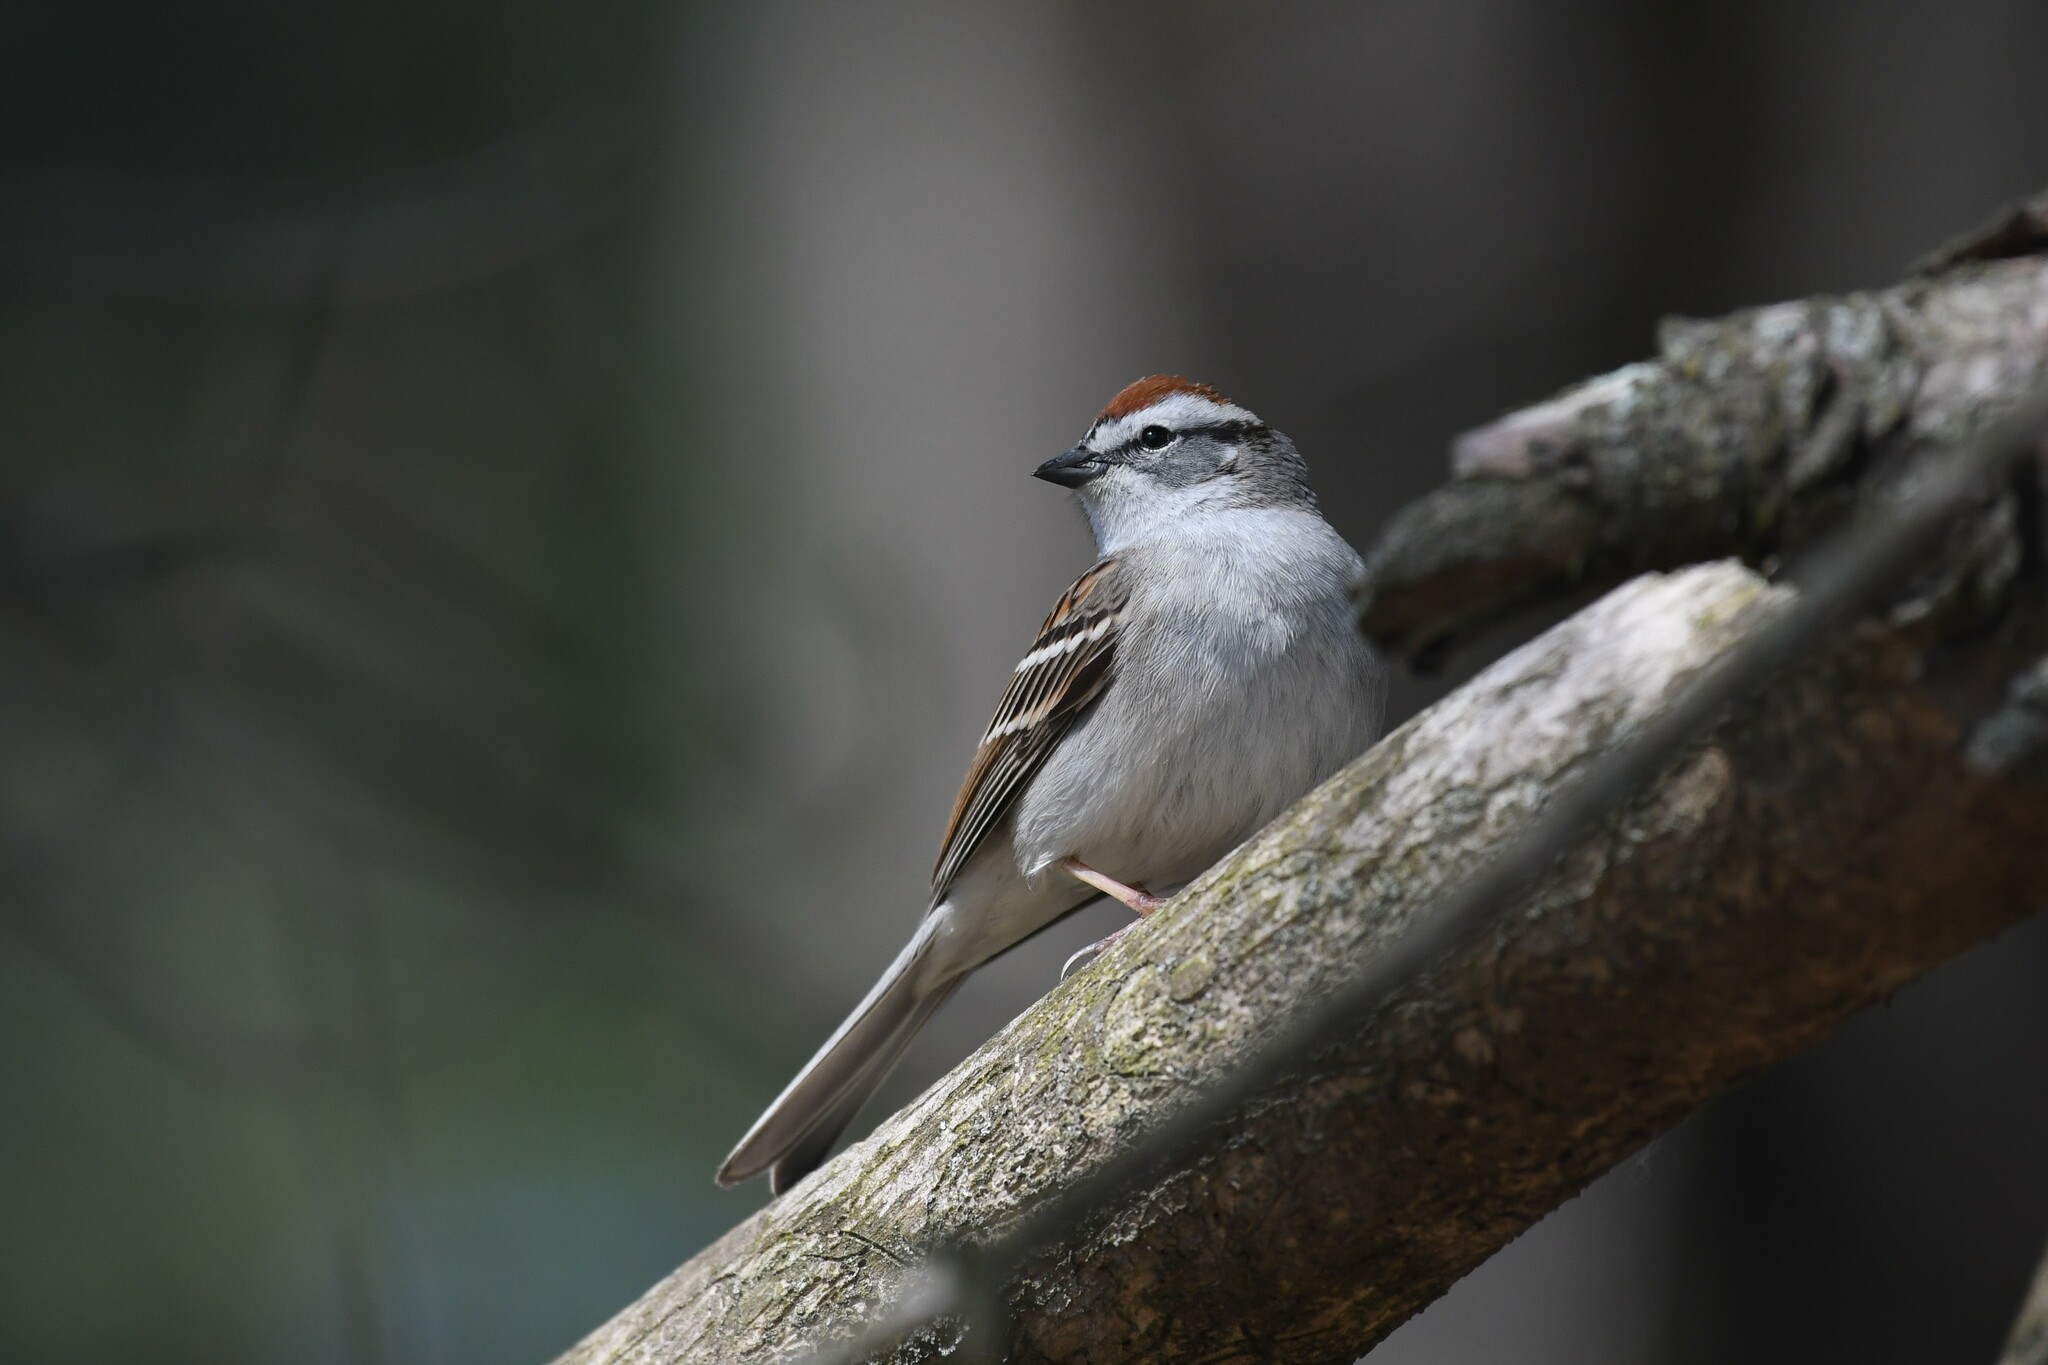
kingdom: Animalia
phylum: Chordata
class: Aves
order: Passeriformes
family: Passerellidae
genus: Spizella
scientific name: Spizella passerina
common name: Chipping sparrow
